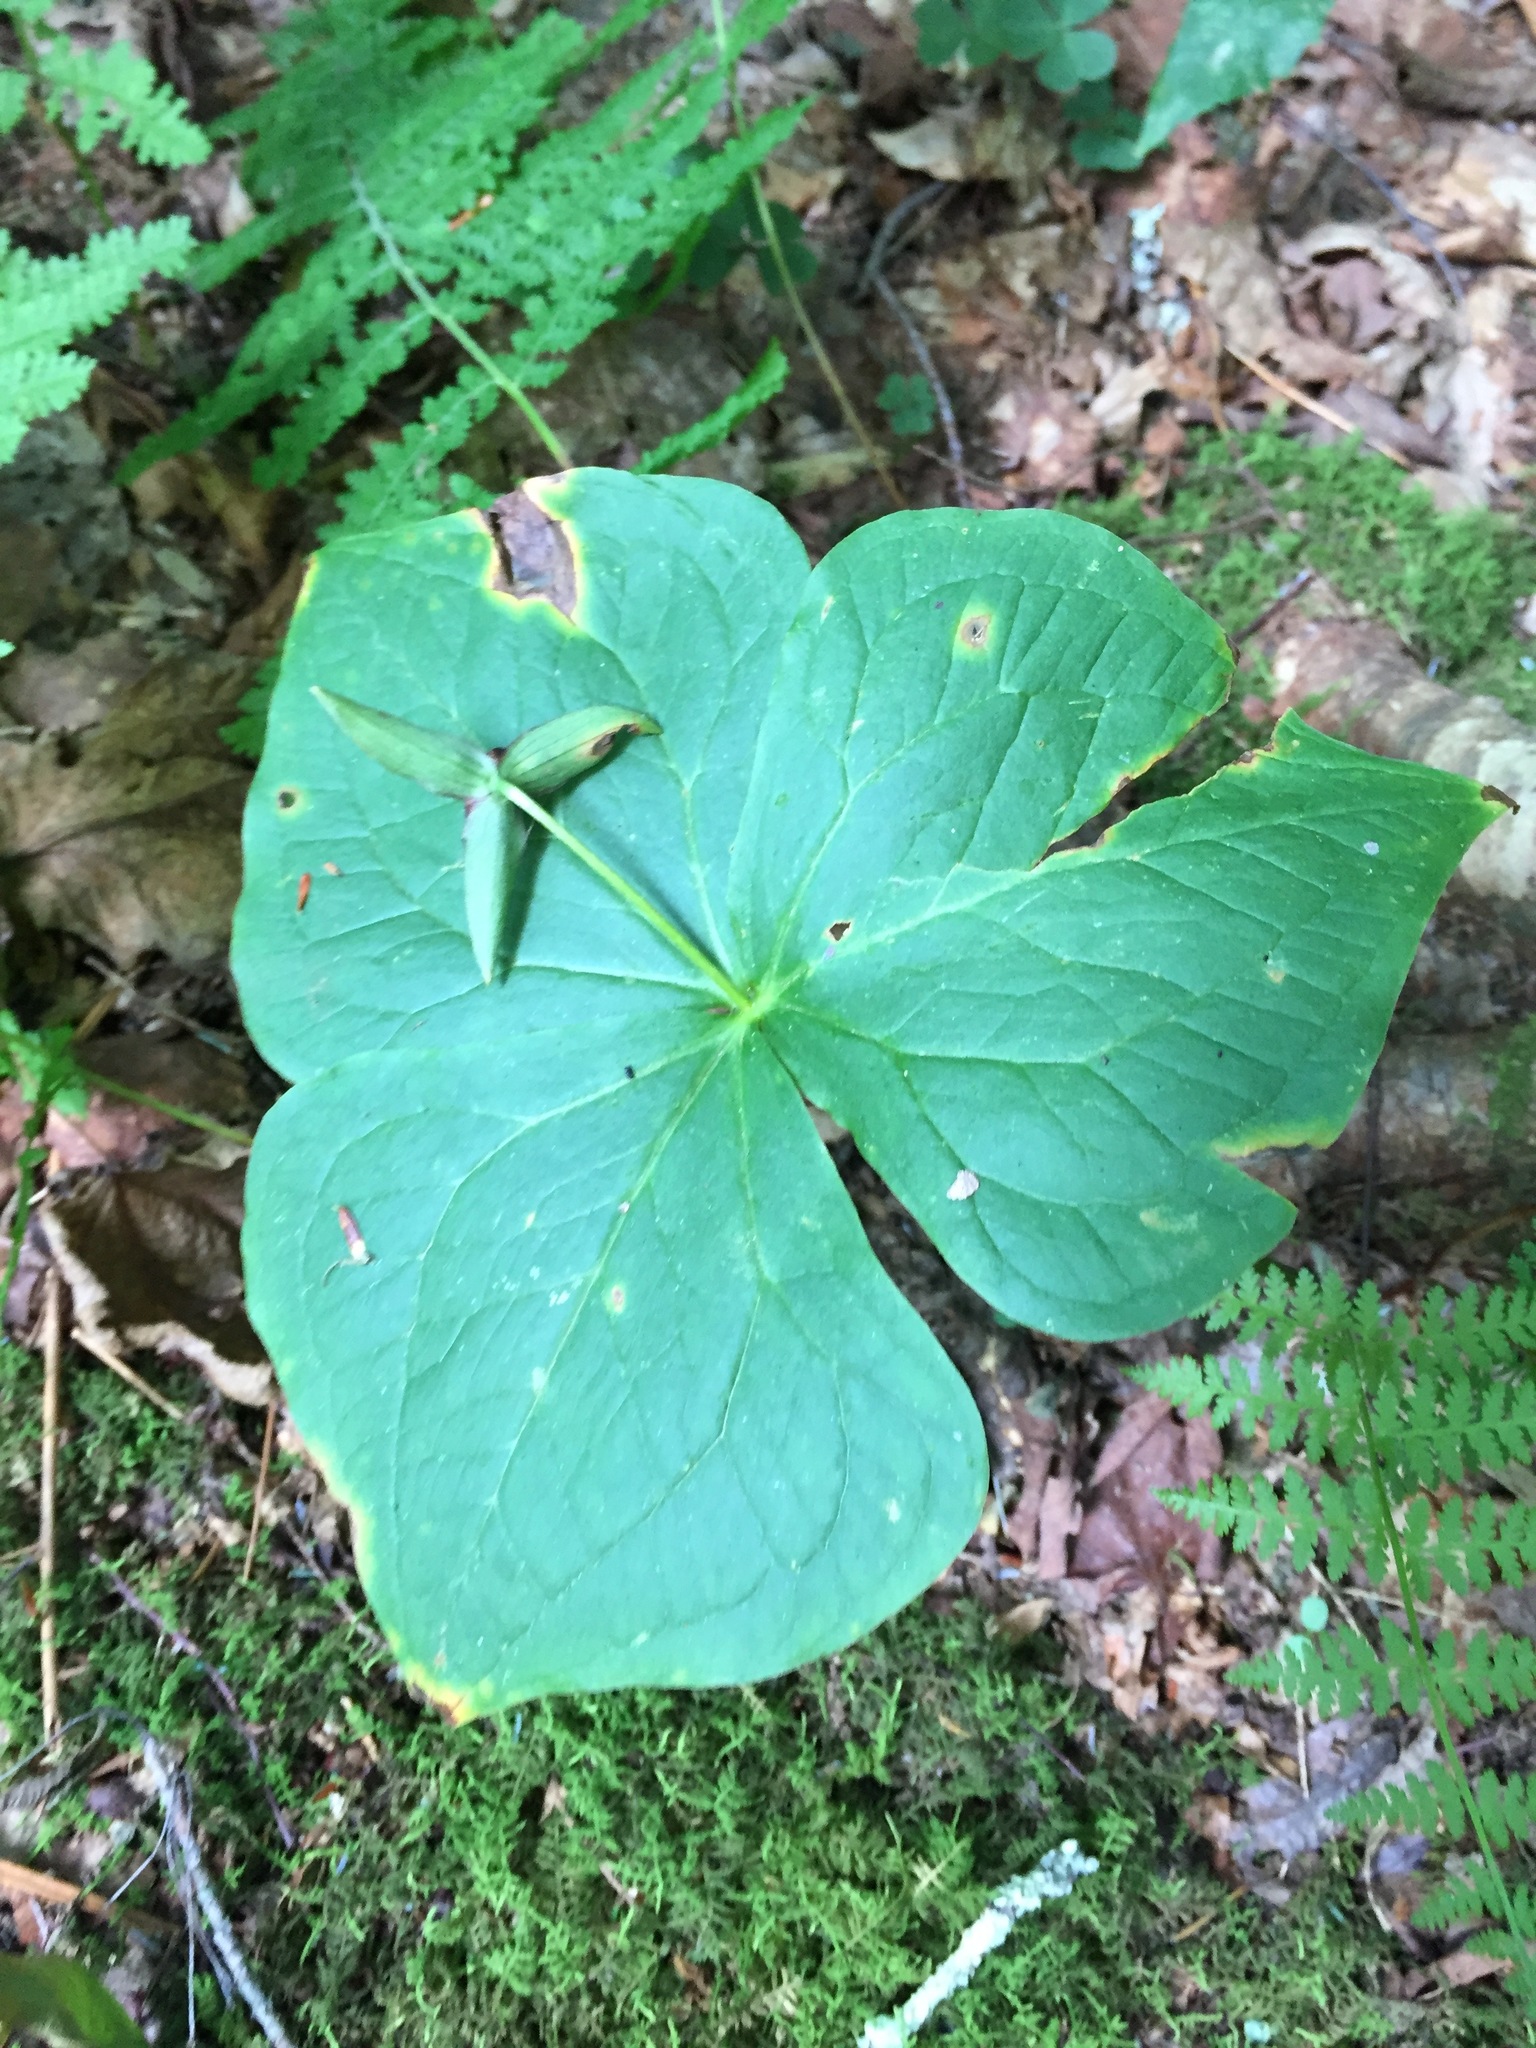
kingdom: Plantae
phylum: Tracheophyta
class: Liliopsida
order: Liliales
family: Melanthiaceae
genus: Trillium
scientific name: Trillium erectum
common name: Purple trillium
